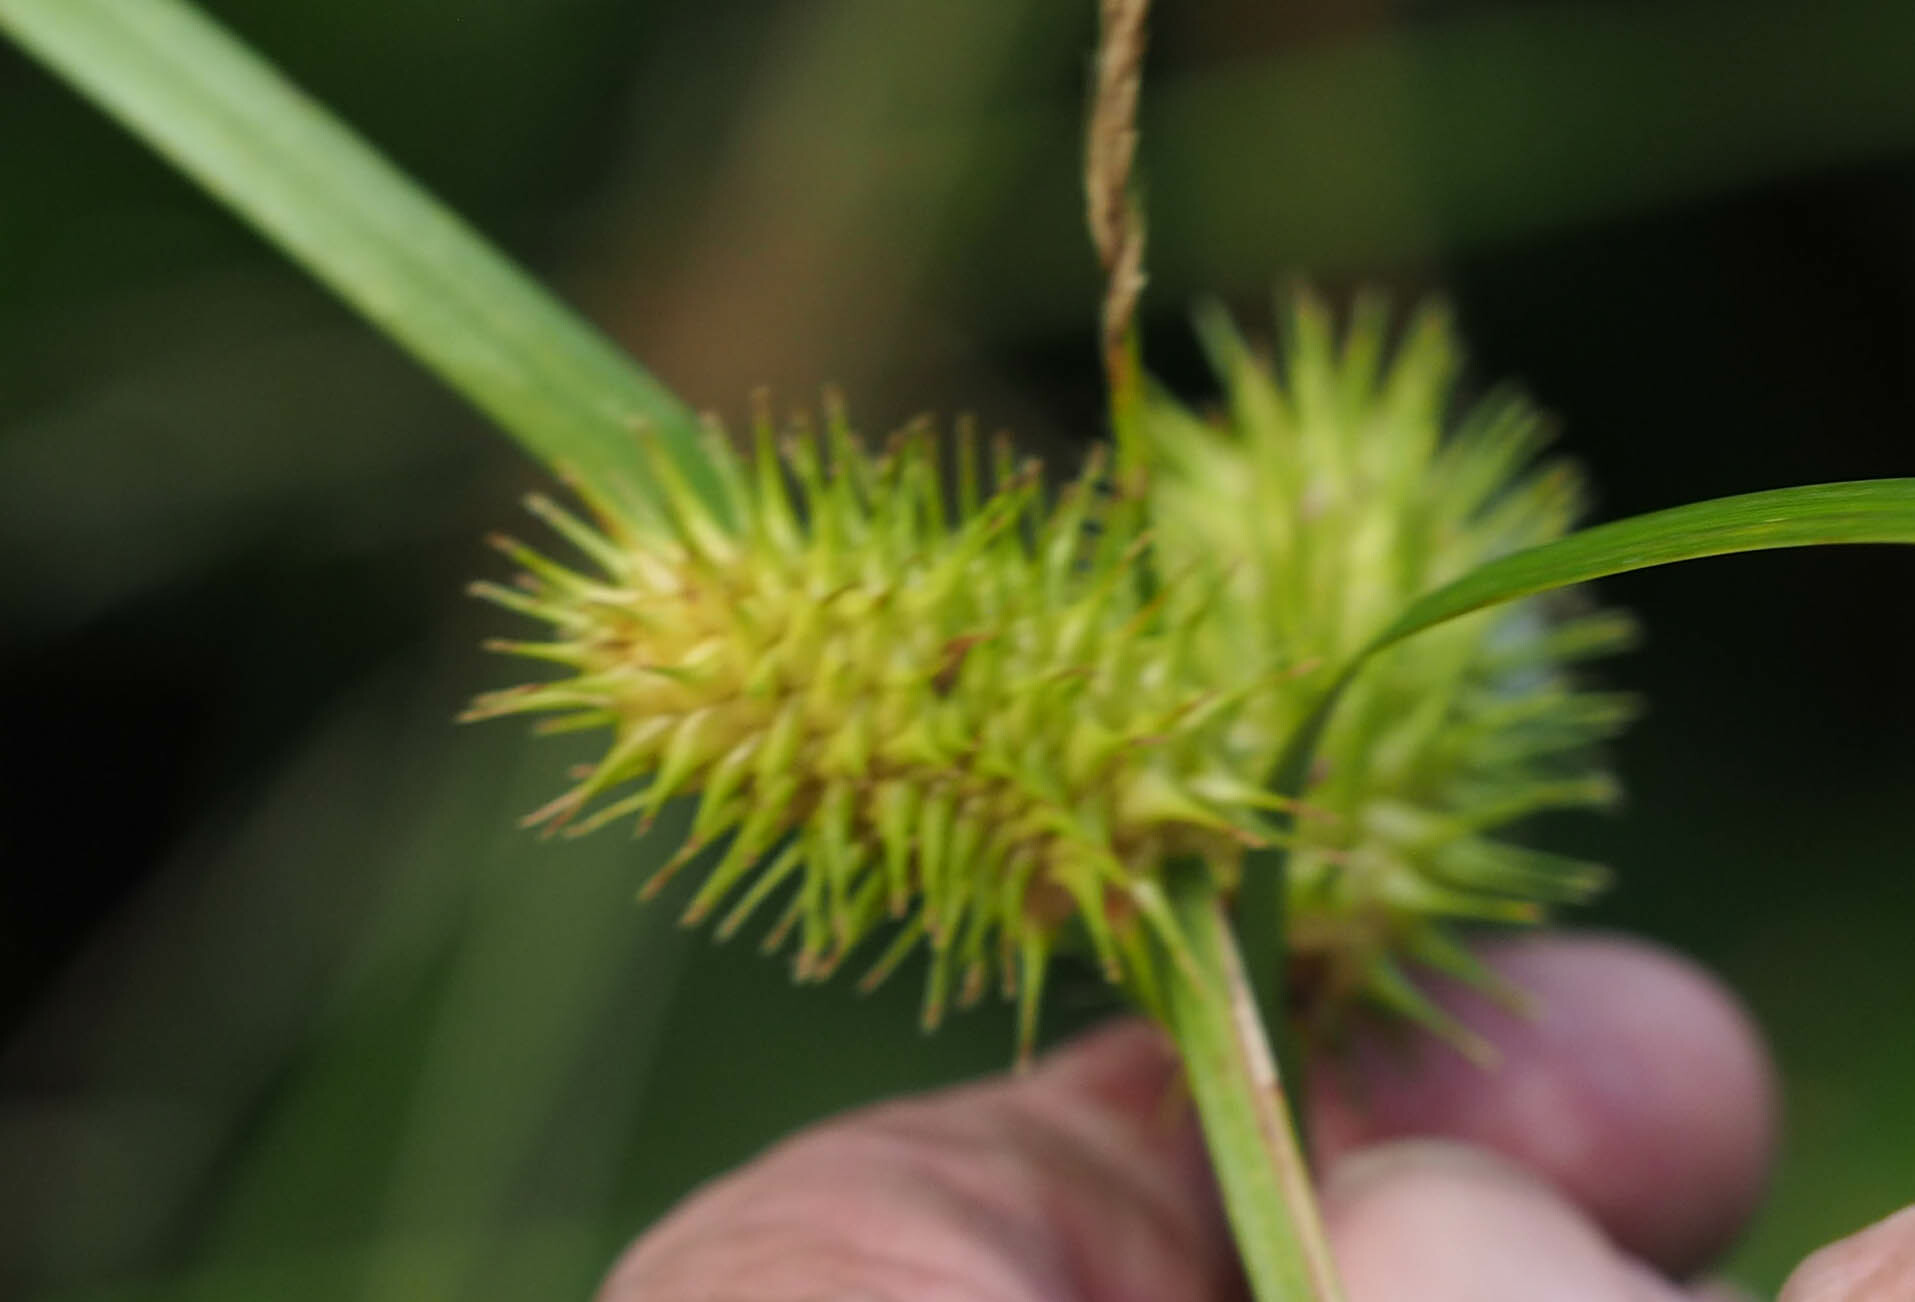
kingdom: Plantae
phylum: Tracheophyta
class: Liliopsida
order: Poales
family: Cyperaceae
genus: Carex
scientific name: Carex lurida
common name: Sallow sedge
